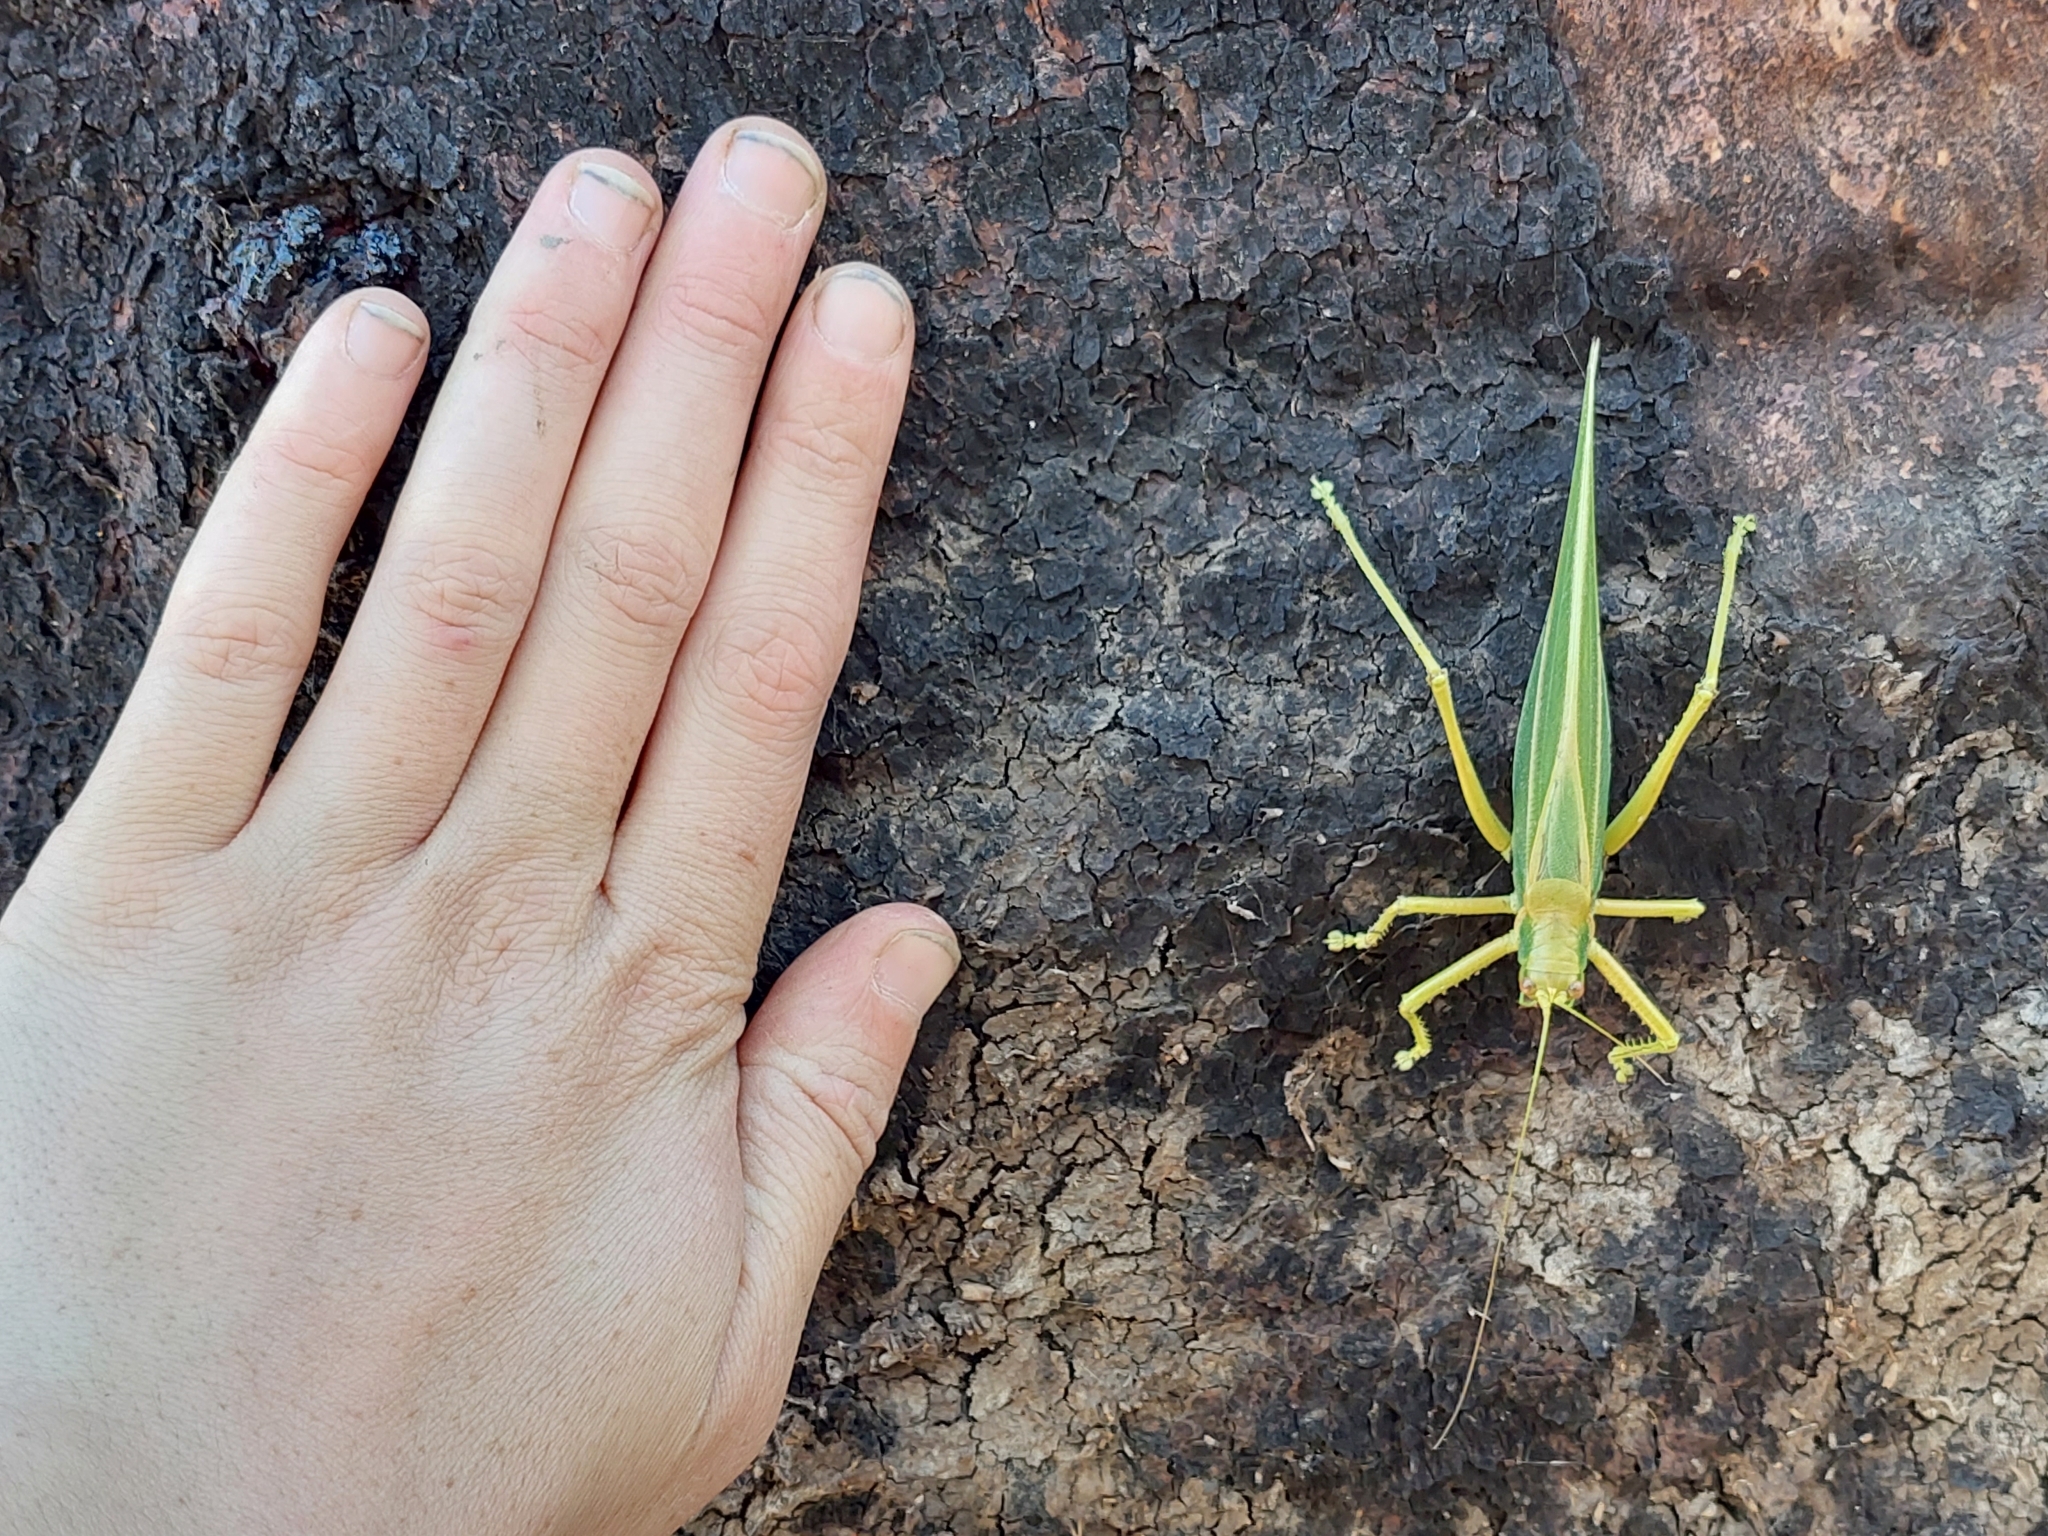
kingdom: Animalia
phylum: Arthropoda
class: Insecta
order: Orthoptera
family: Tettigoniidae
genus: Terpandrus
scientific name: Terpandrus calperum
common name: Calperum gumleaf katydid
